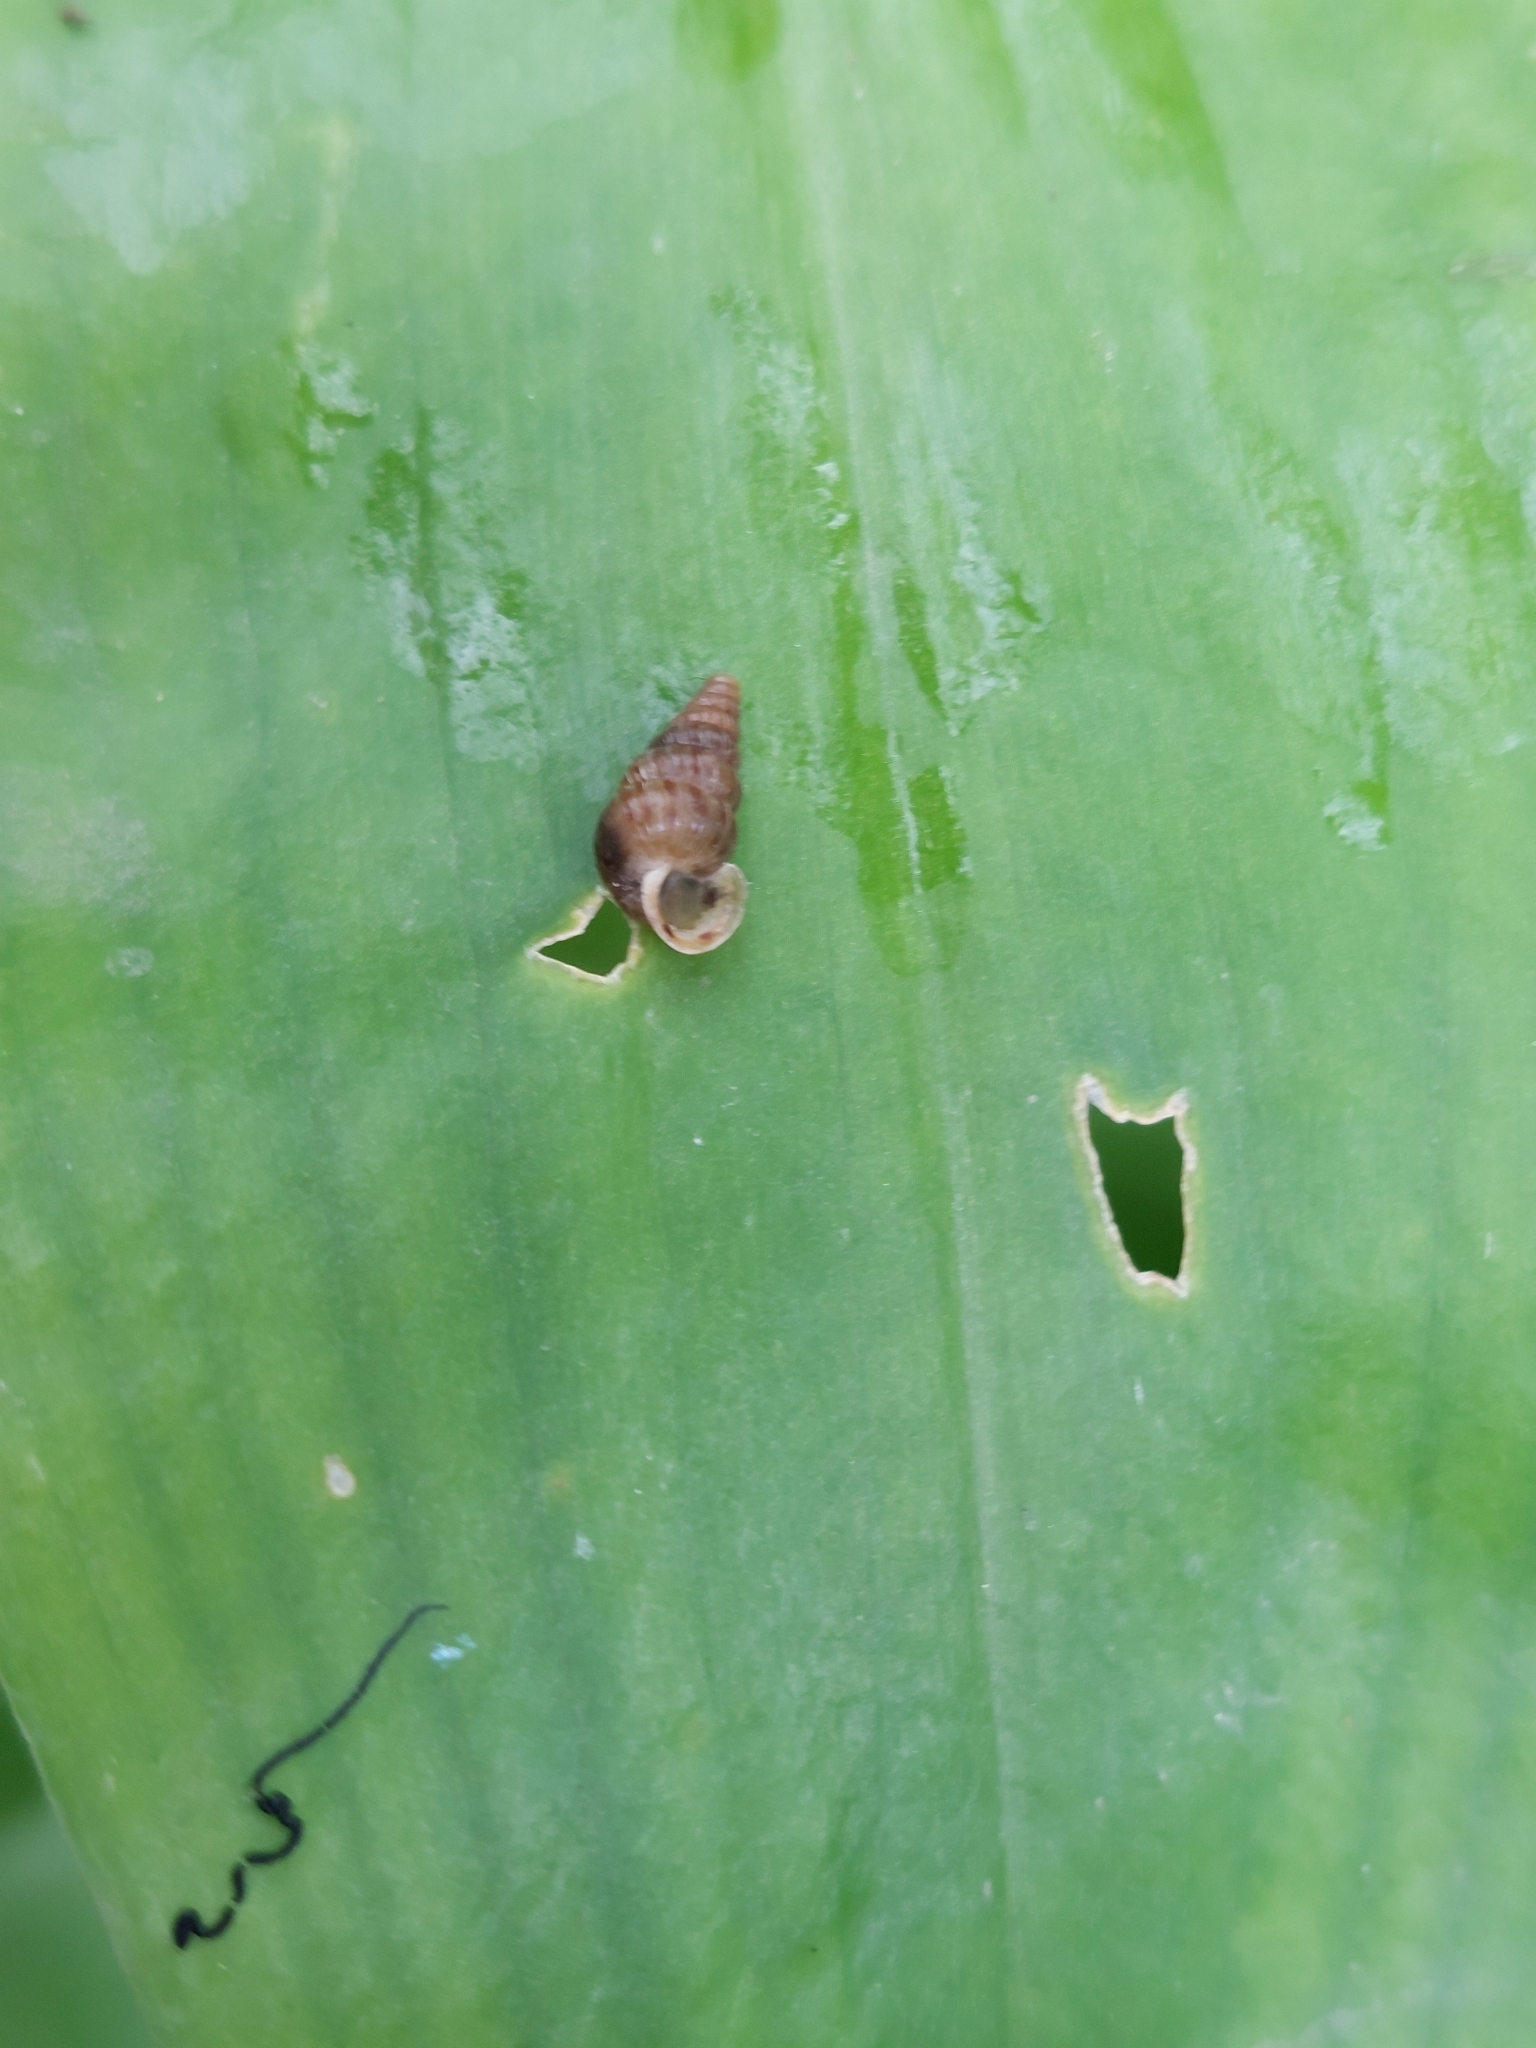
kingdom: Animalia
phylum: Mollusca
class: Gastropoda
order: Architaenioglossa
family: Cochlostomatidae
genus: Cochlostoma
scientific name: Cochlostoma septemspirale
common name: Seven-whorl snail
